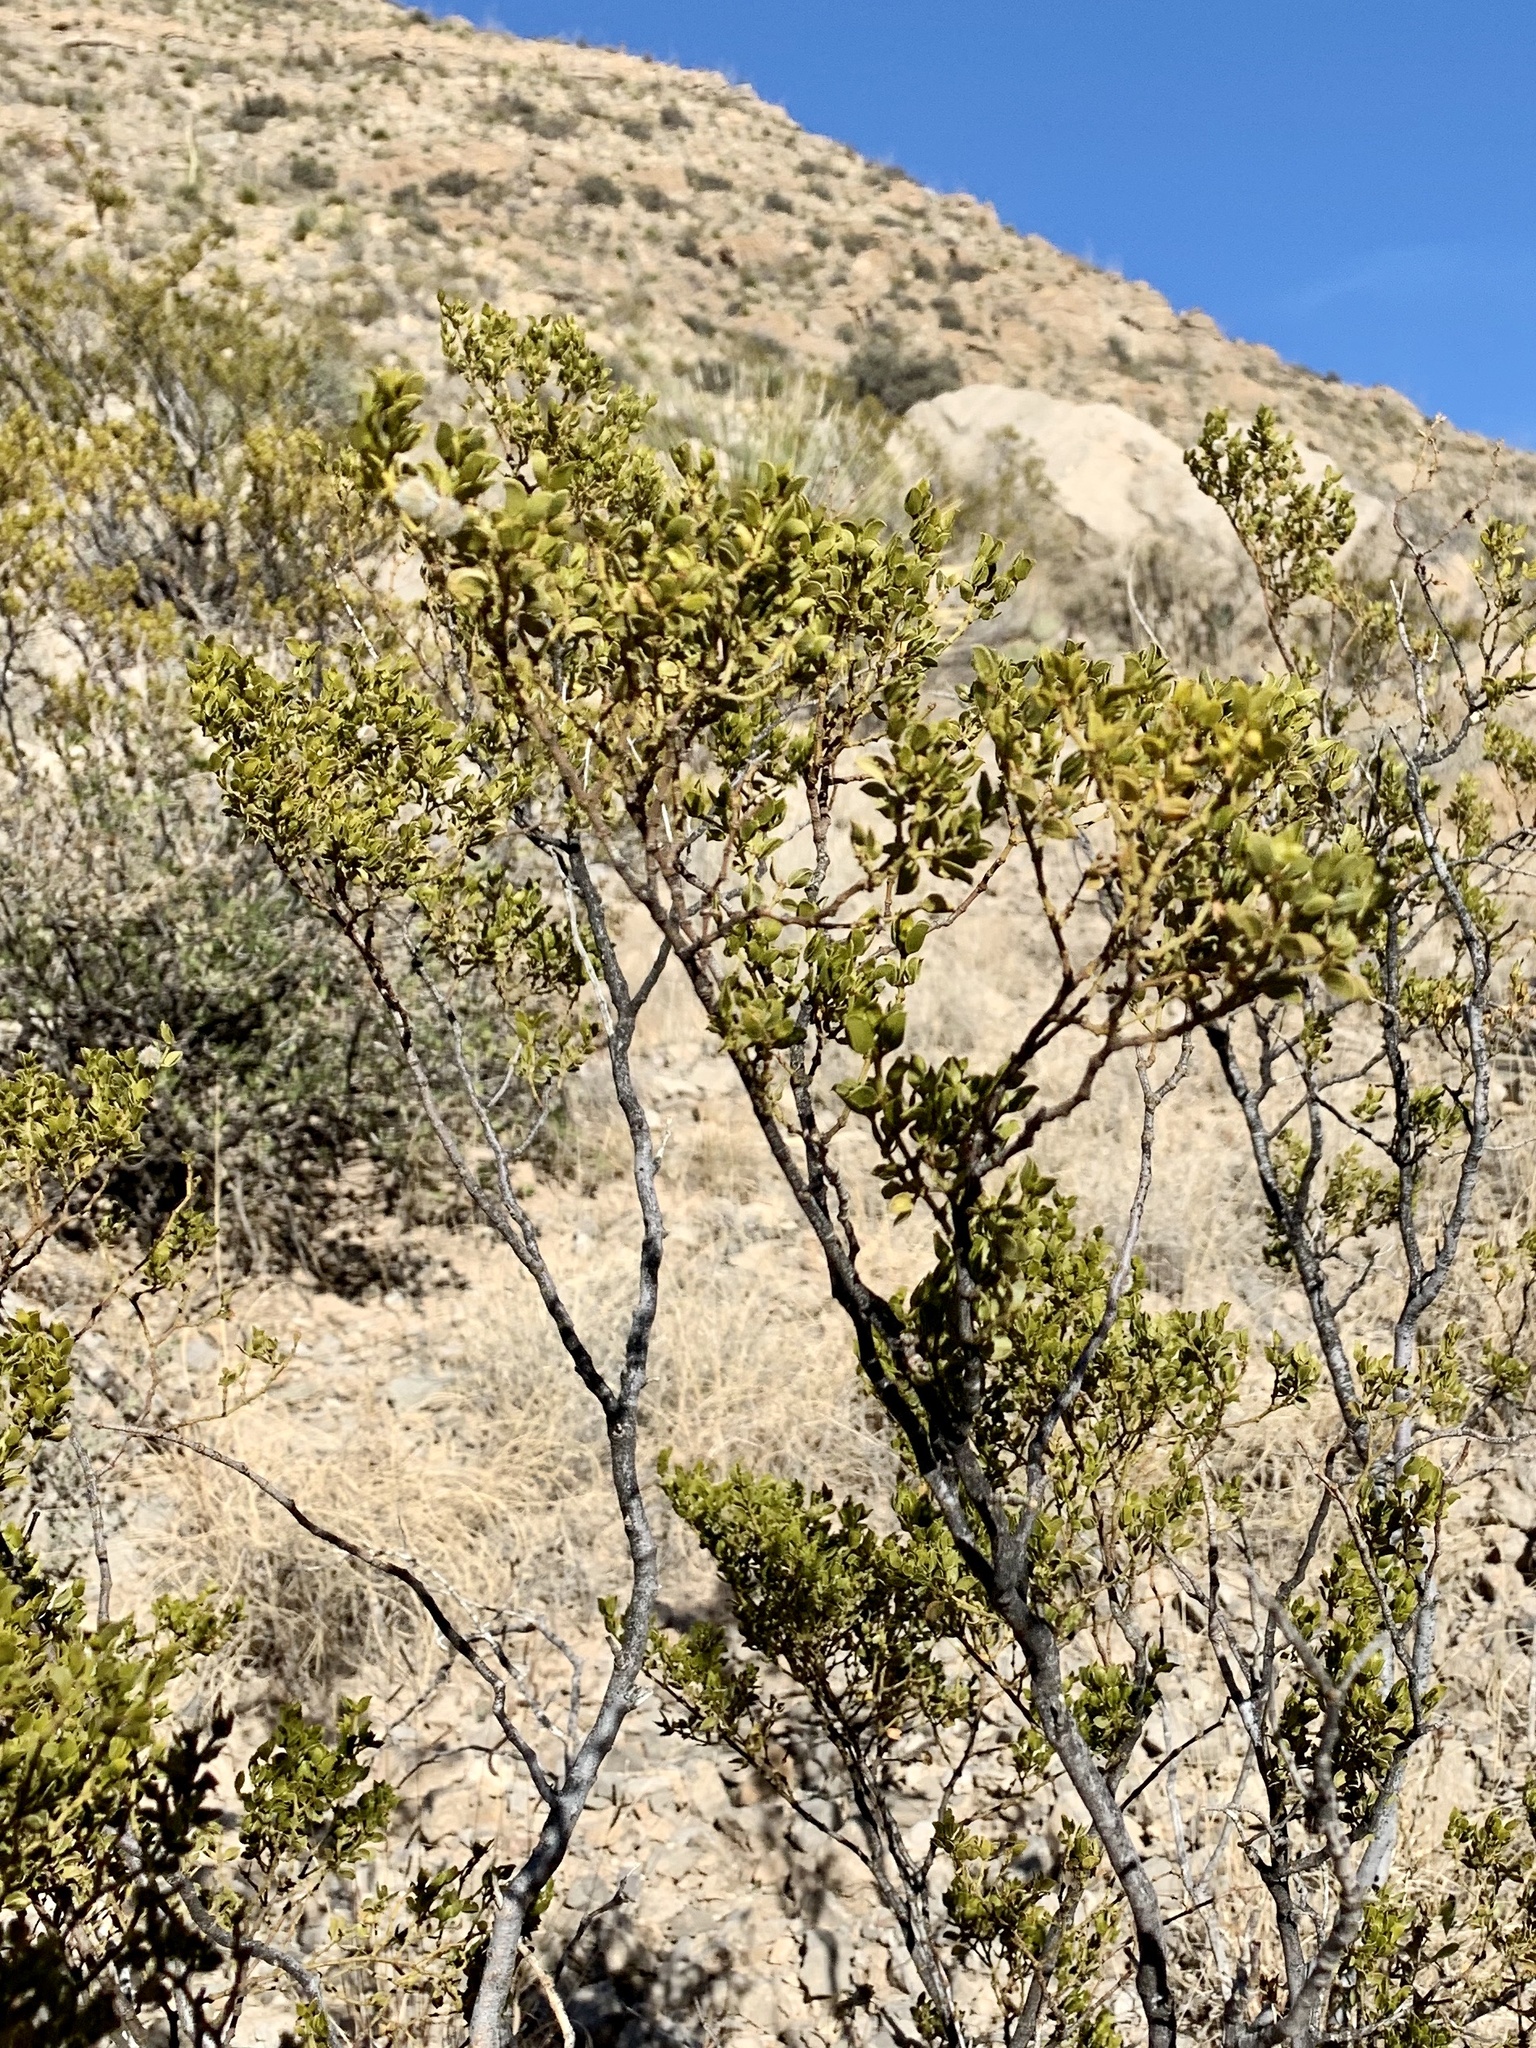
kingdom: Plantae
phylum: Tracheophyta
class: Magnoliopsida
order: Zygophyllales
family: Zygophyllaceae
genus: Larrea
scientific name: Larrea tridentata
